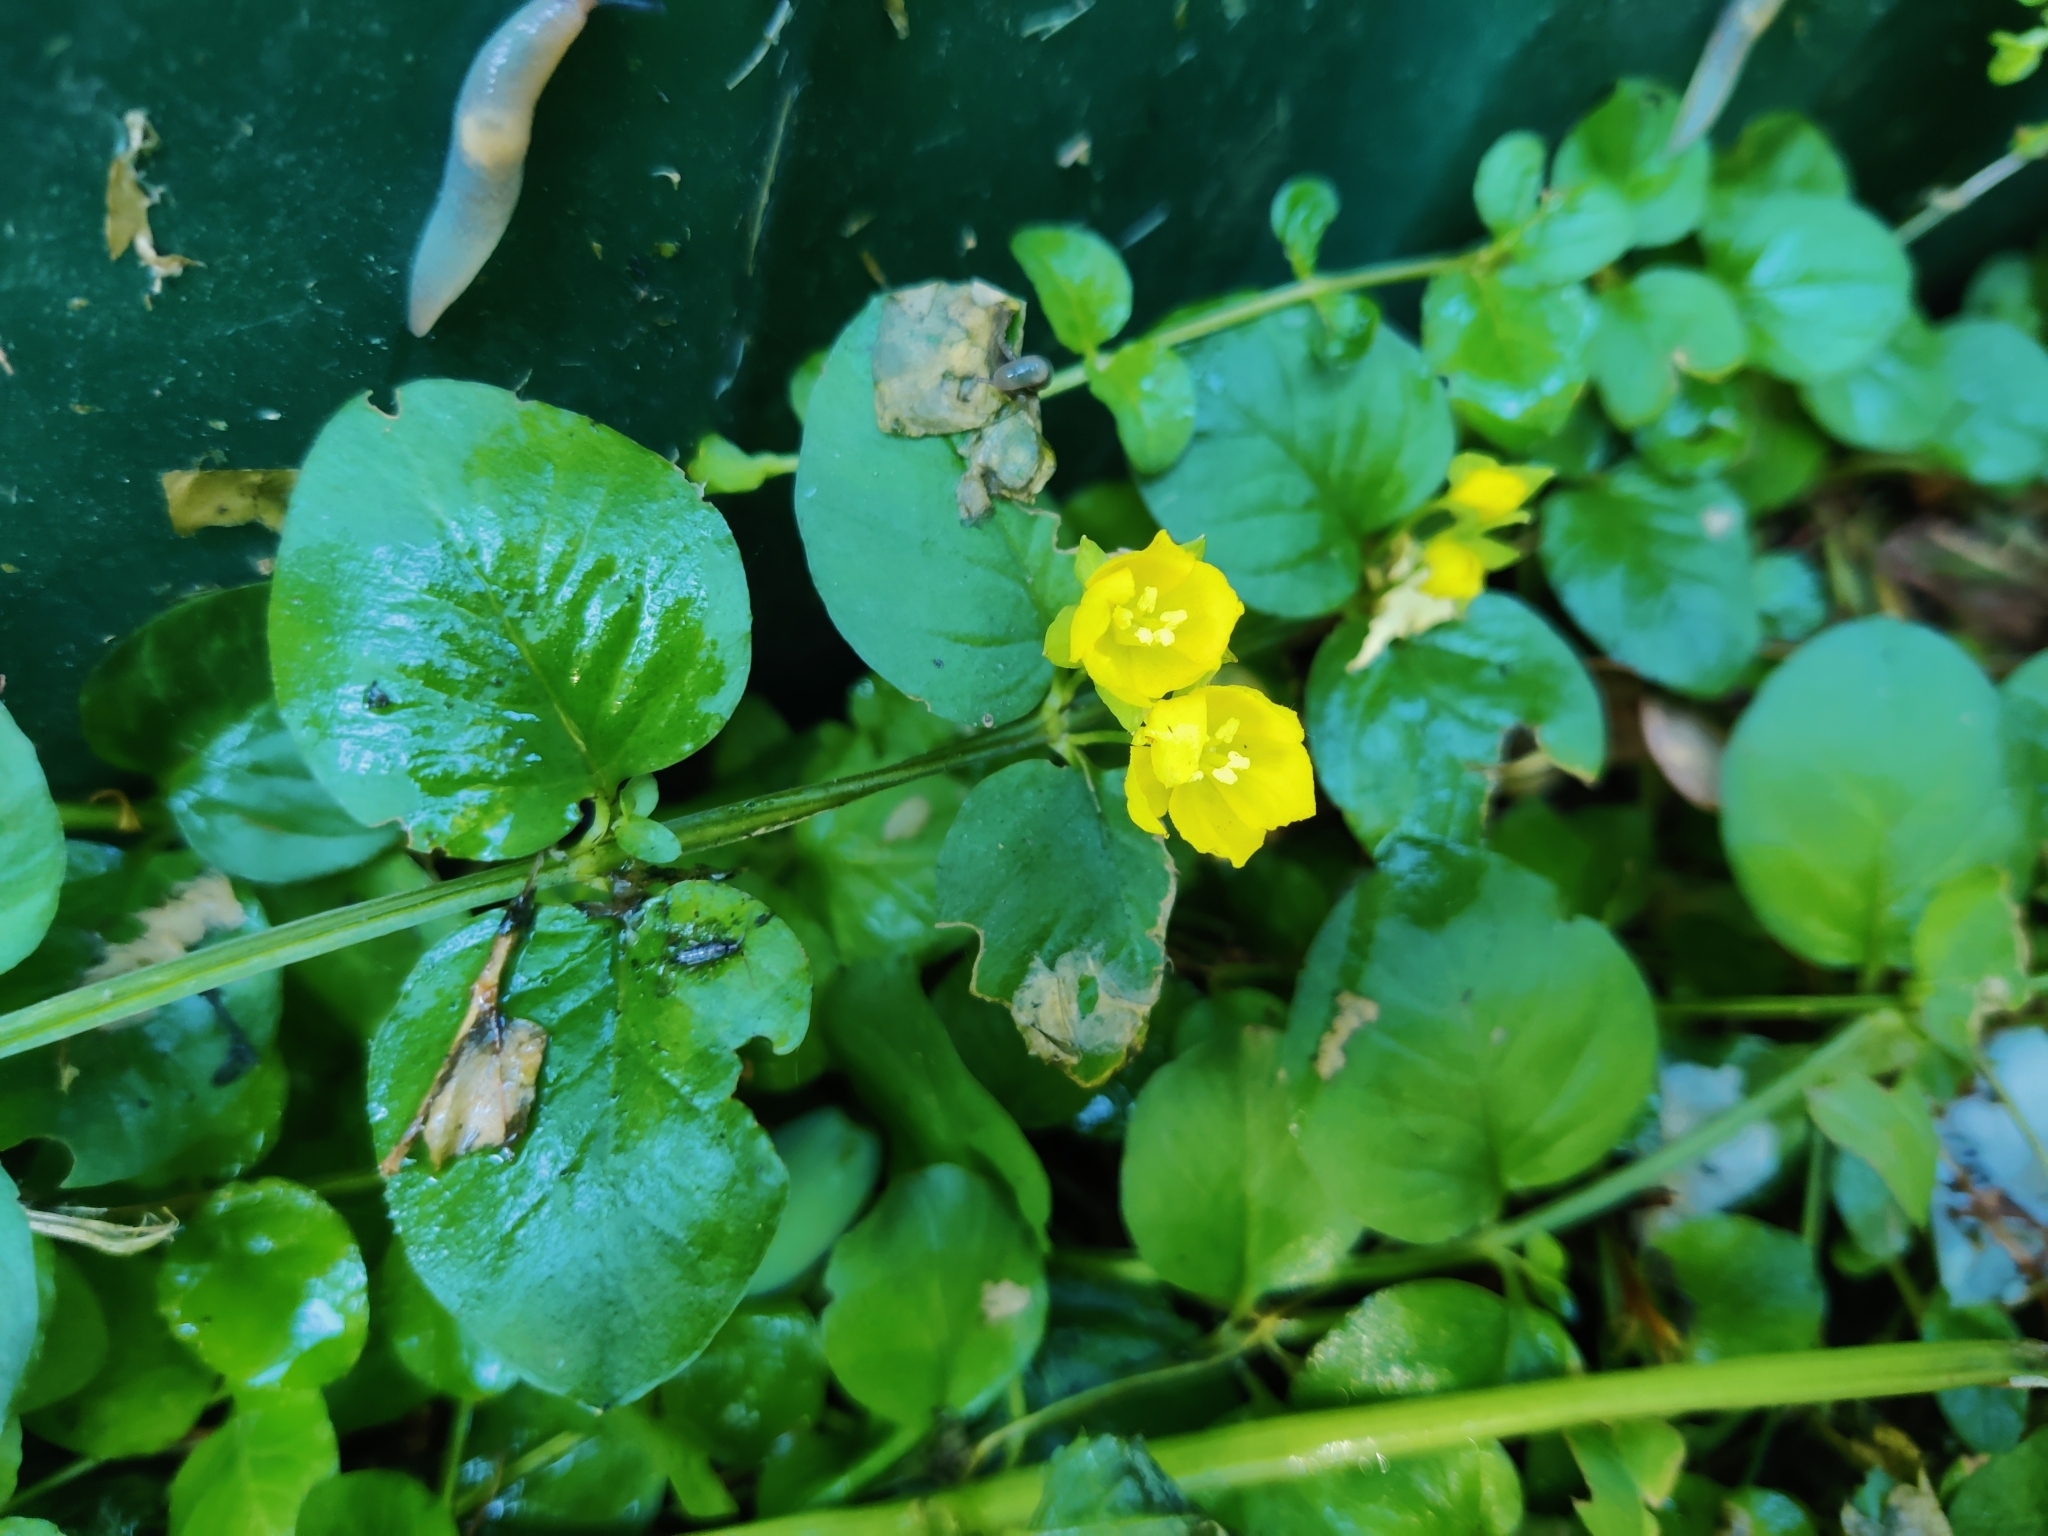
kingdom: Plantae
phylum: Tracheophyta
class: Magnoliopsida
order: Ericales
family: Primulaceae
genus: Lysimachia
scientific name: Lysimachia nummularia
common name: Moneywort
